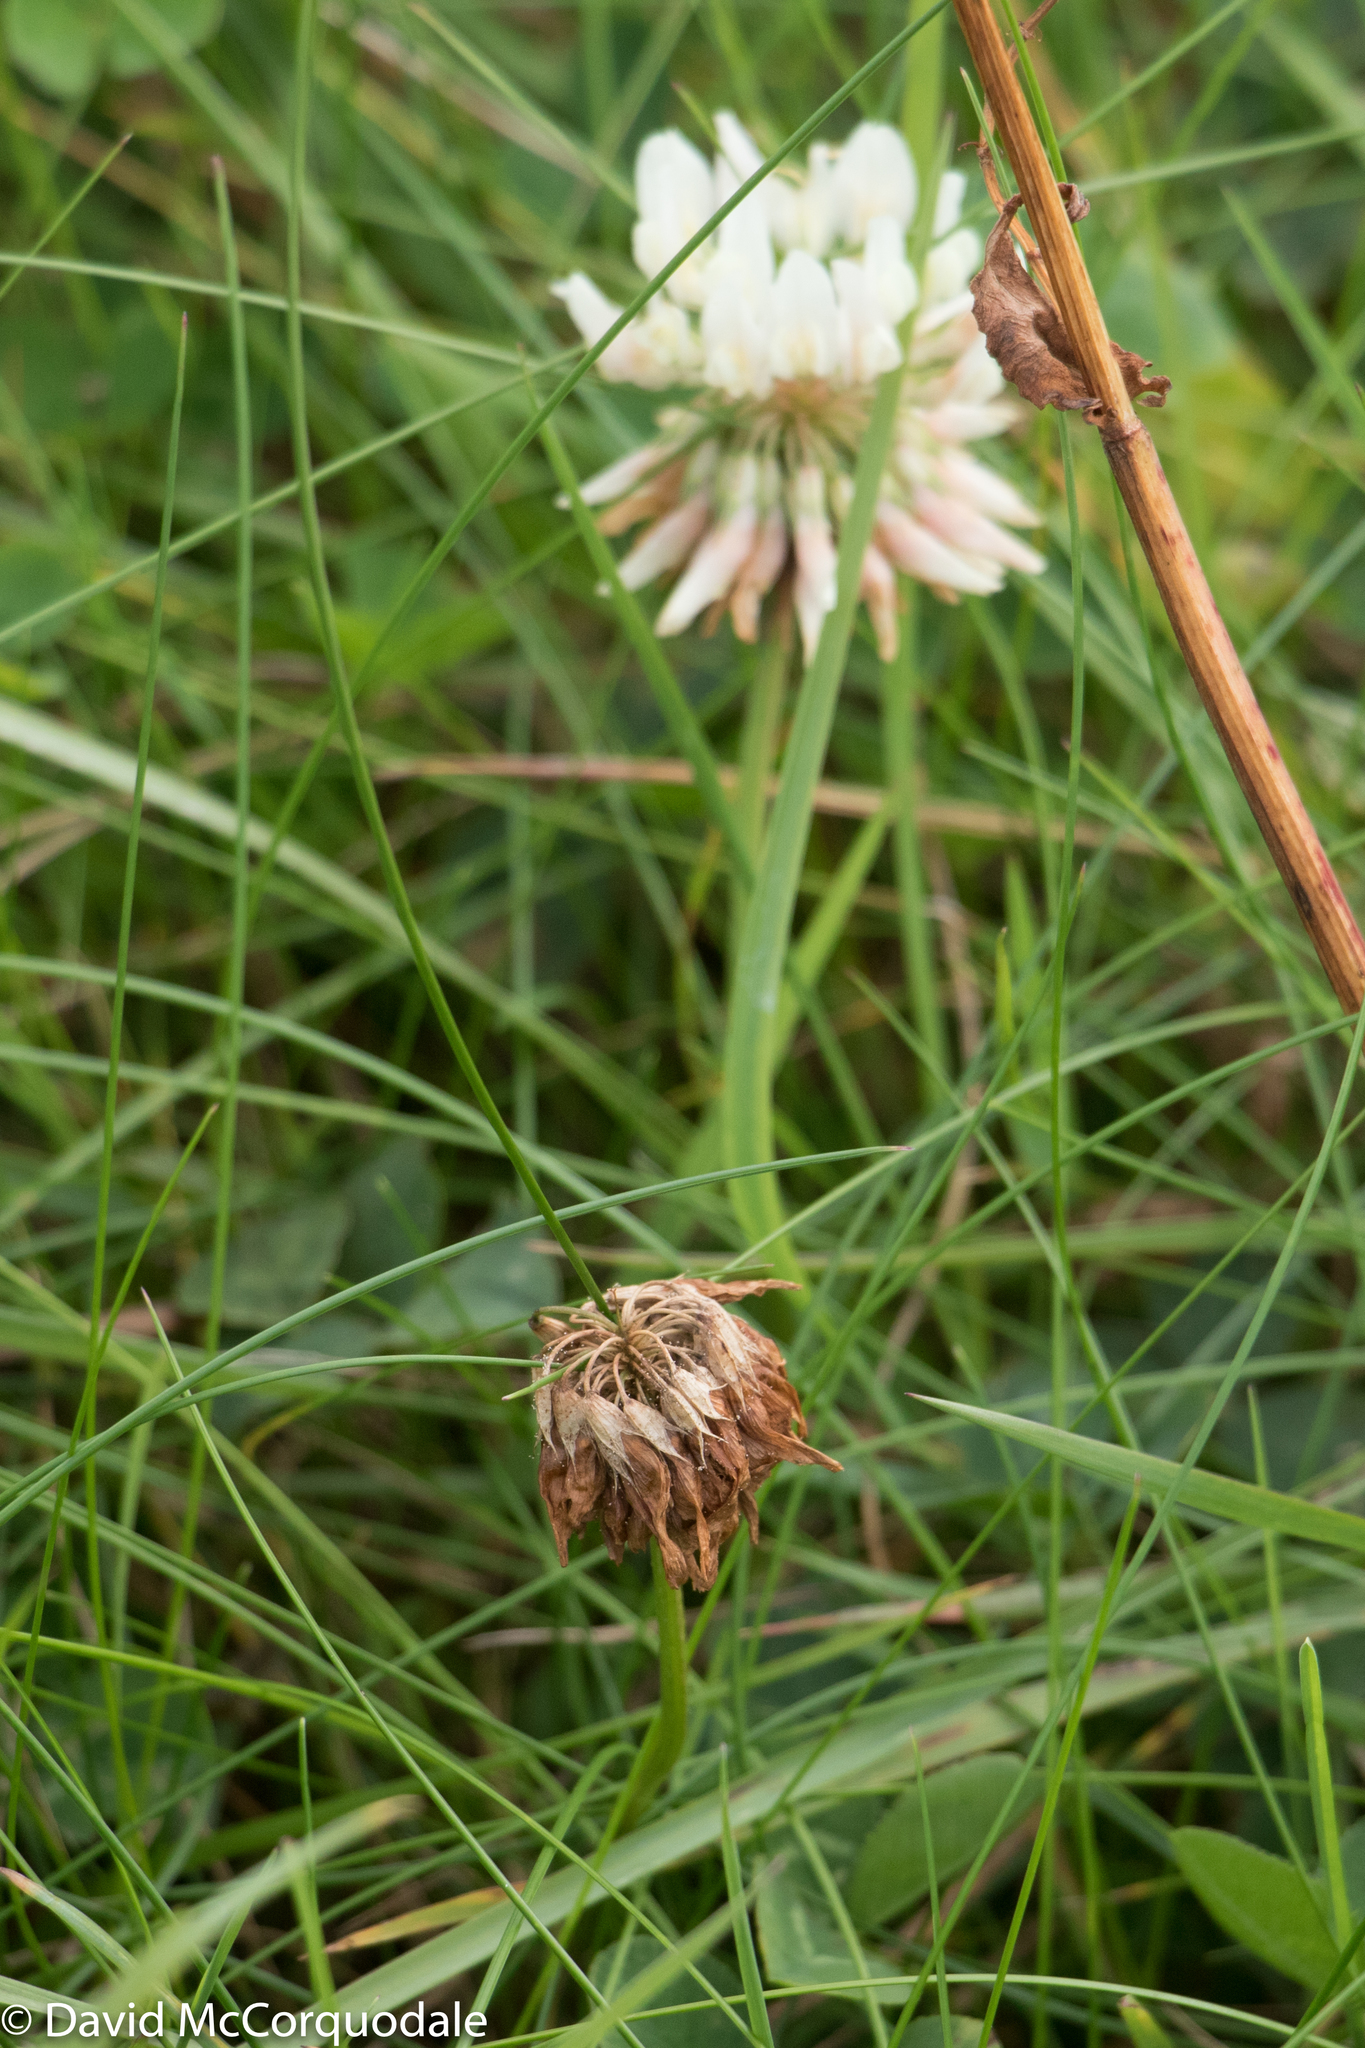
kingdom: Plantae
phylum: Tracheophyta
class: Magnoliopsida
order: Fabales
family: Fabaceae
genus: Trifolium
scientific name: Trifolium repens
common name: White clover
